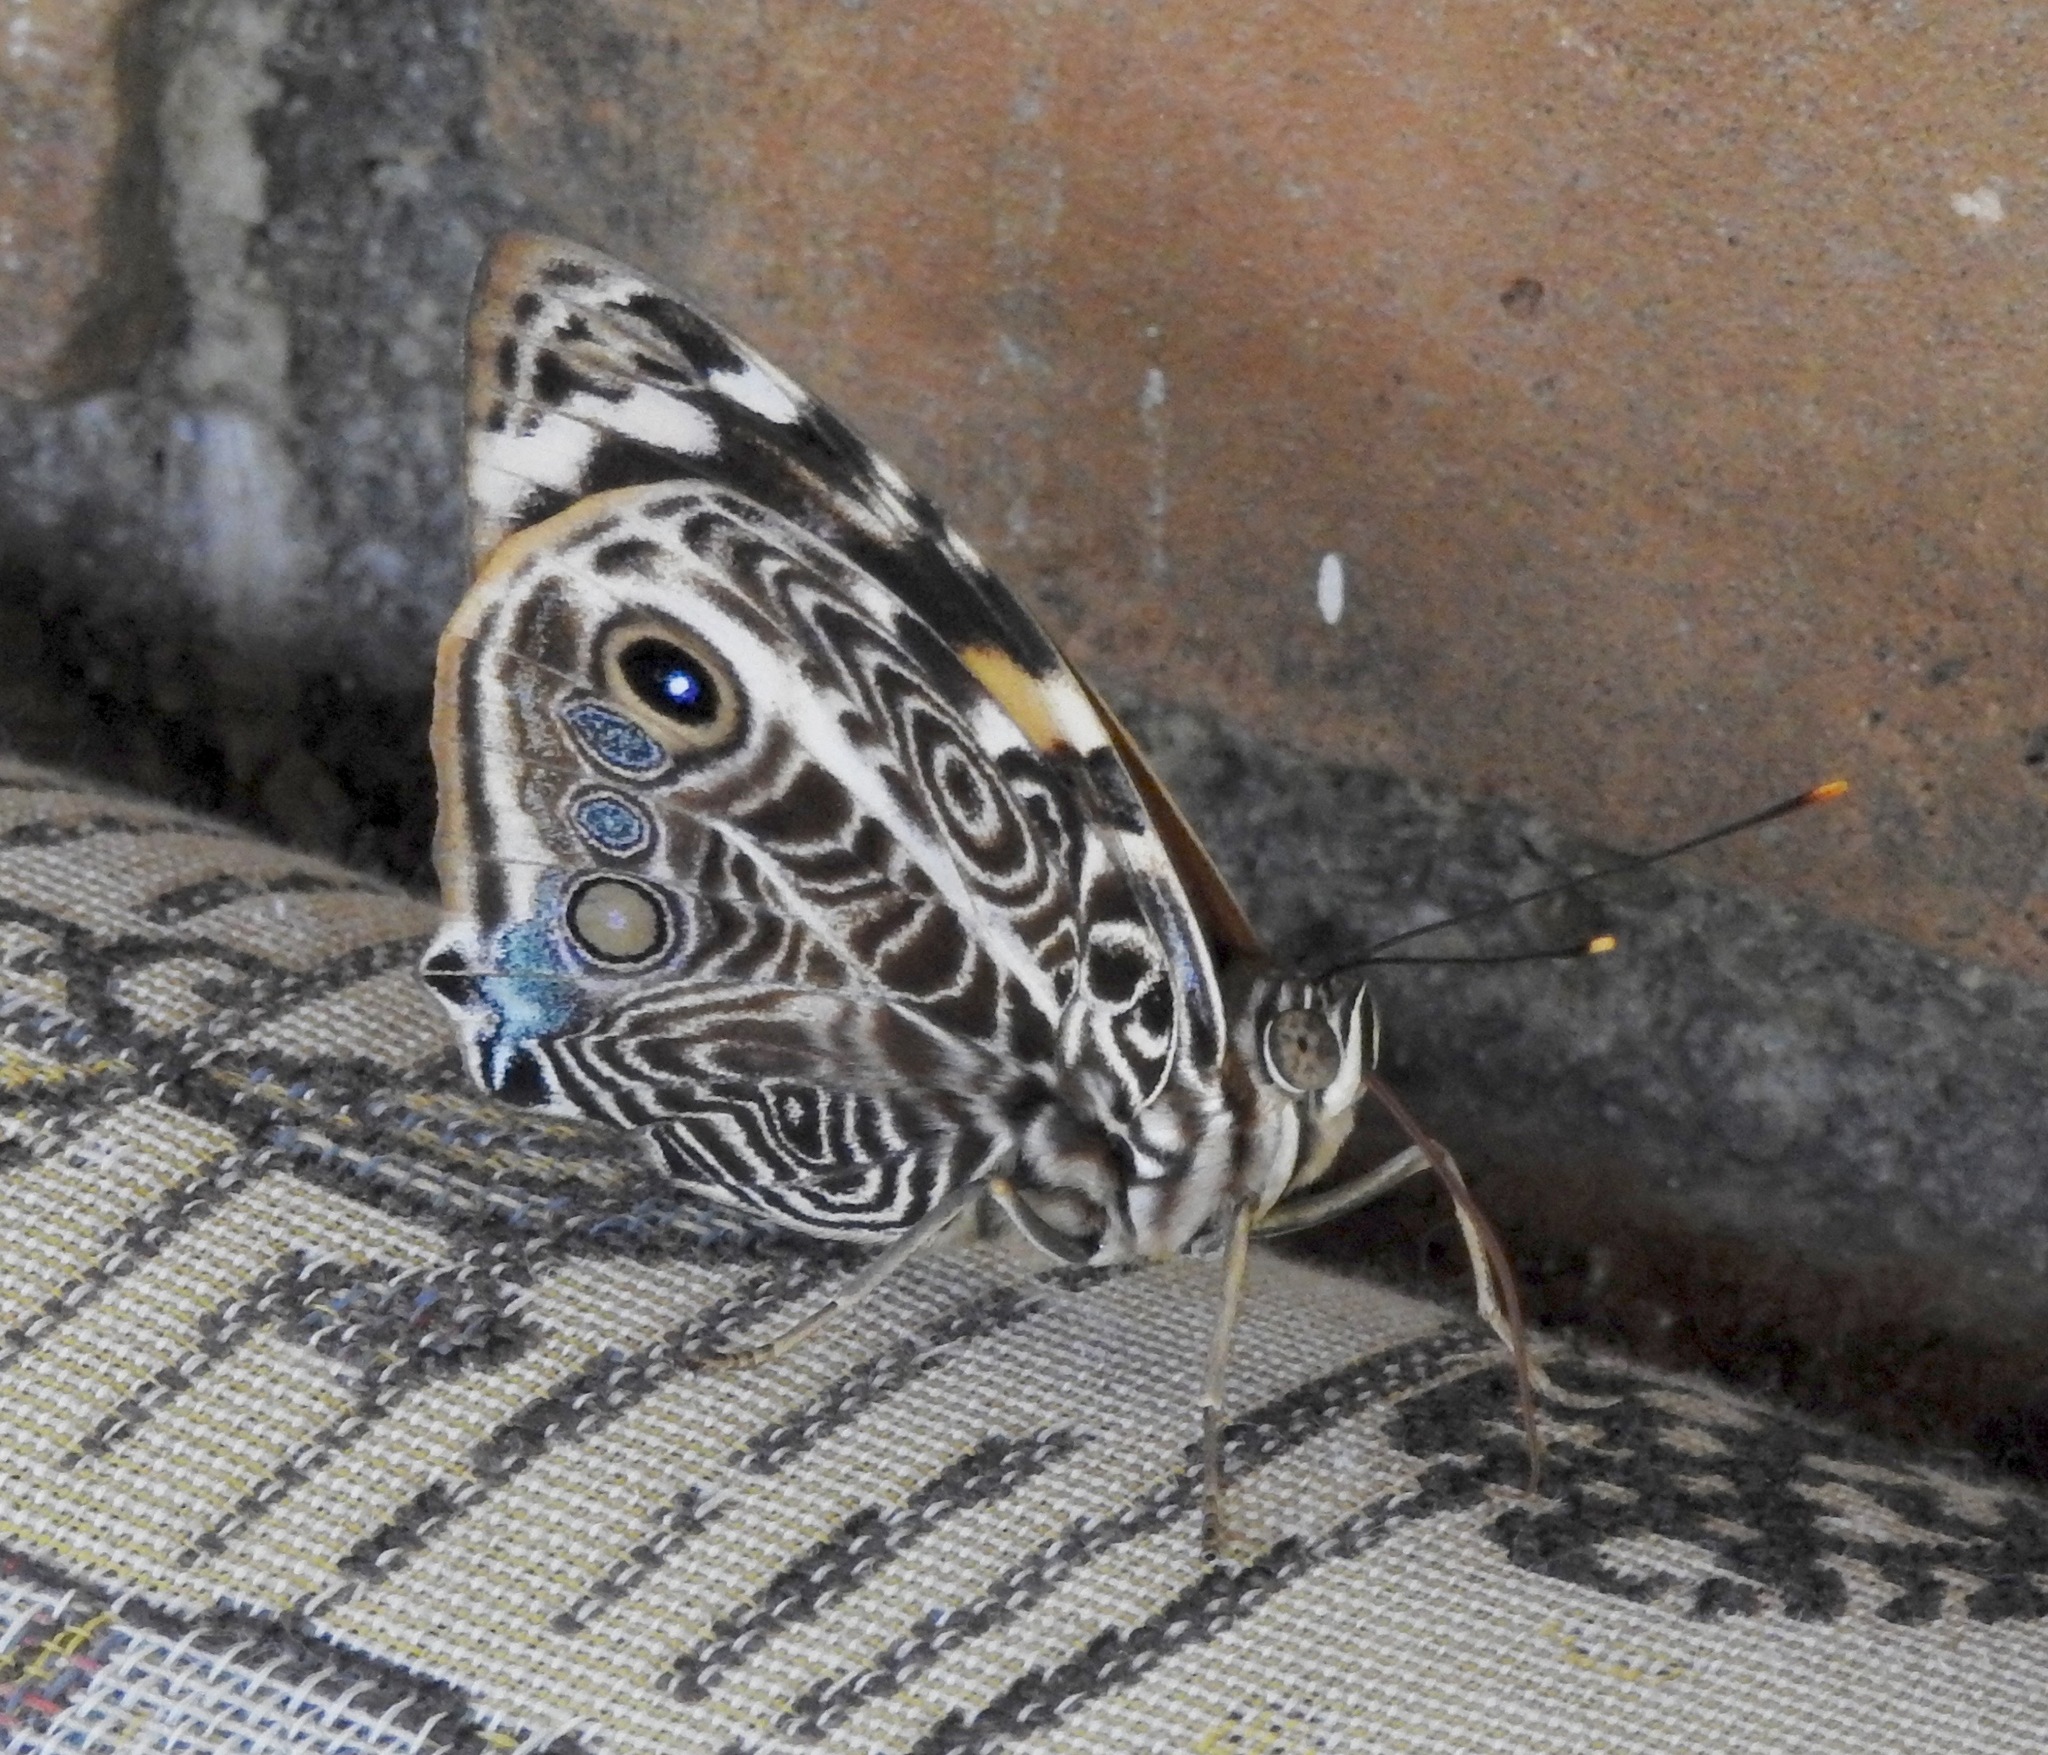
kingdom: Animalia
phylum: Arthropoda
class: Insecta
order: Lepidoptera
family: Nymphalidae
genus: Smyrna
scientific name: Smyrna blomfildia
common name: Blomfild's beauty
